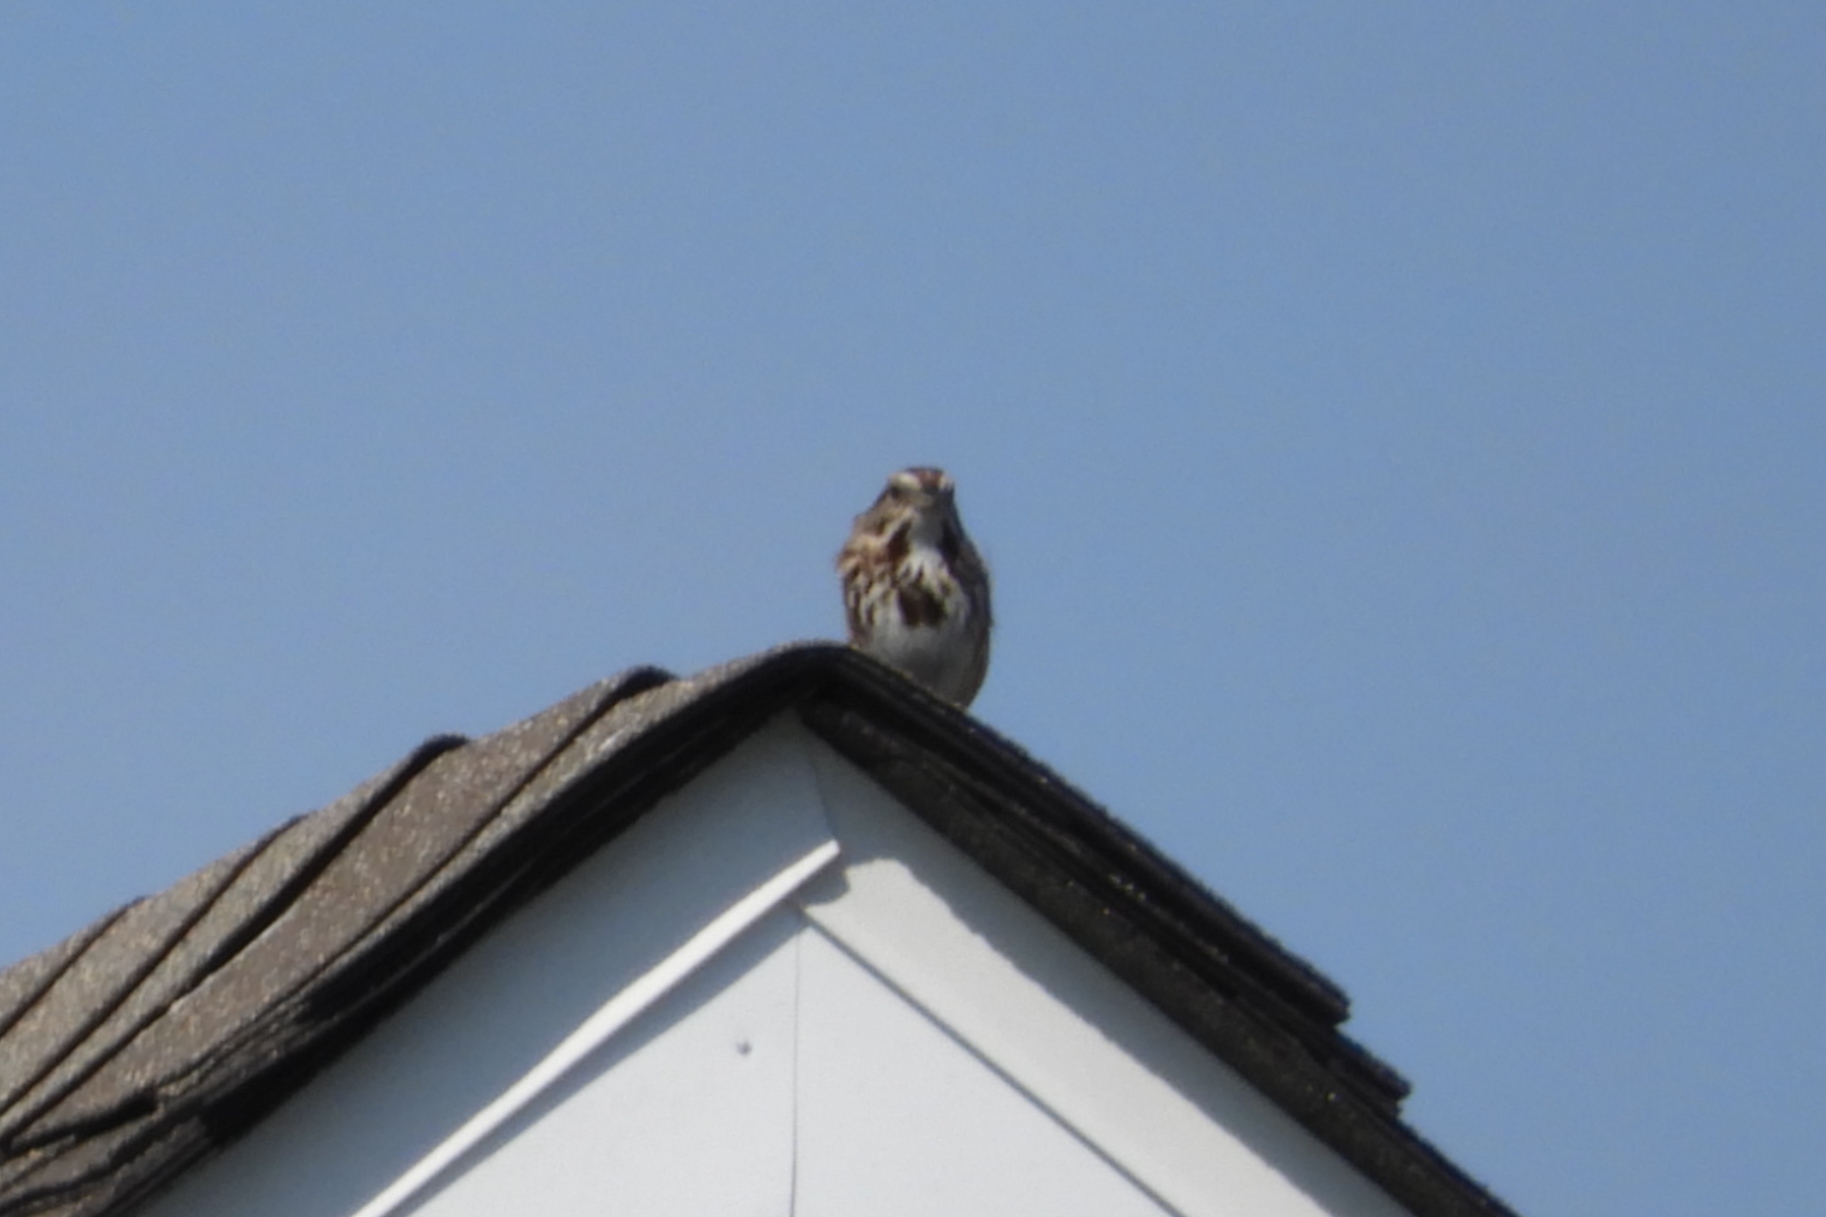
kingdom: Animalia
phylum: Chordata
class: Aves
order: Passeriformes
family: Passerellidae
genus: Melospiza
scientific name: Melospiza melodia
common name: Song sparrow
